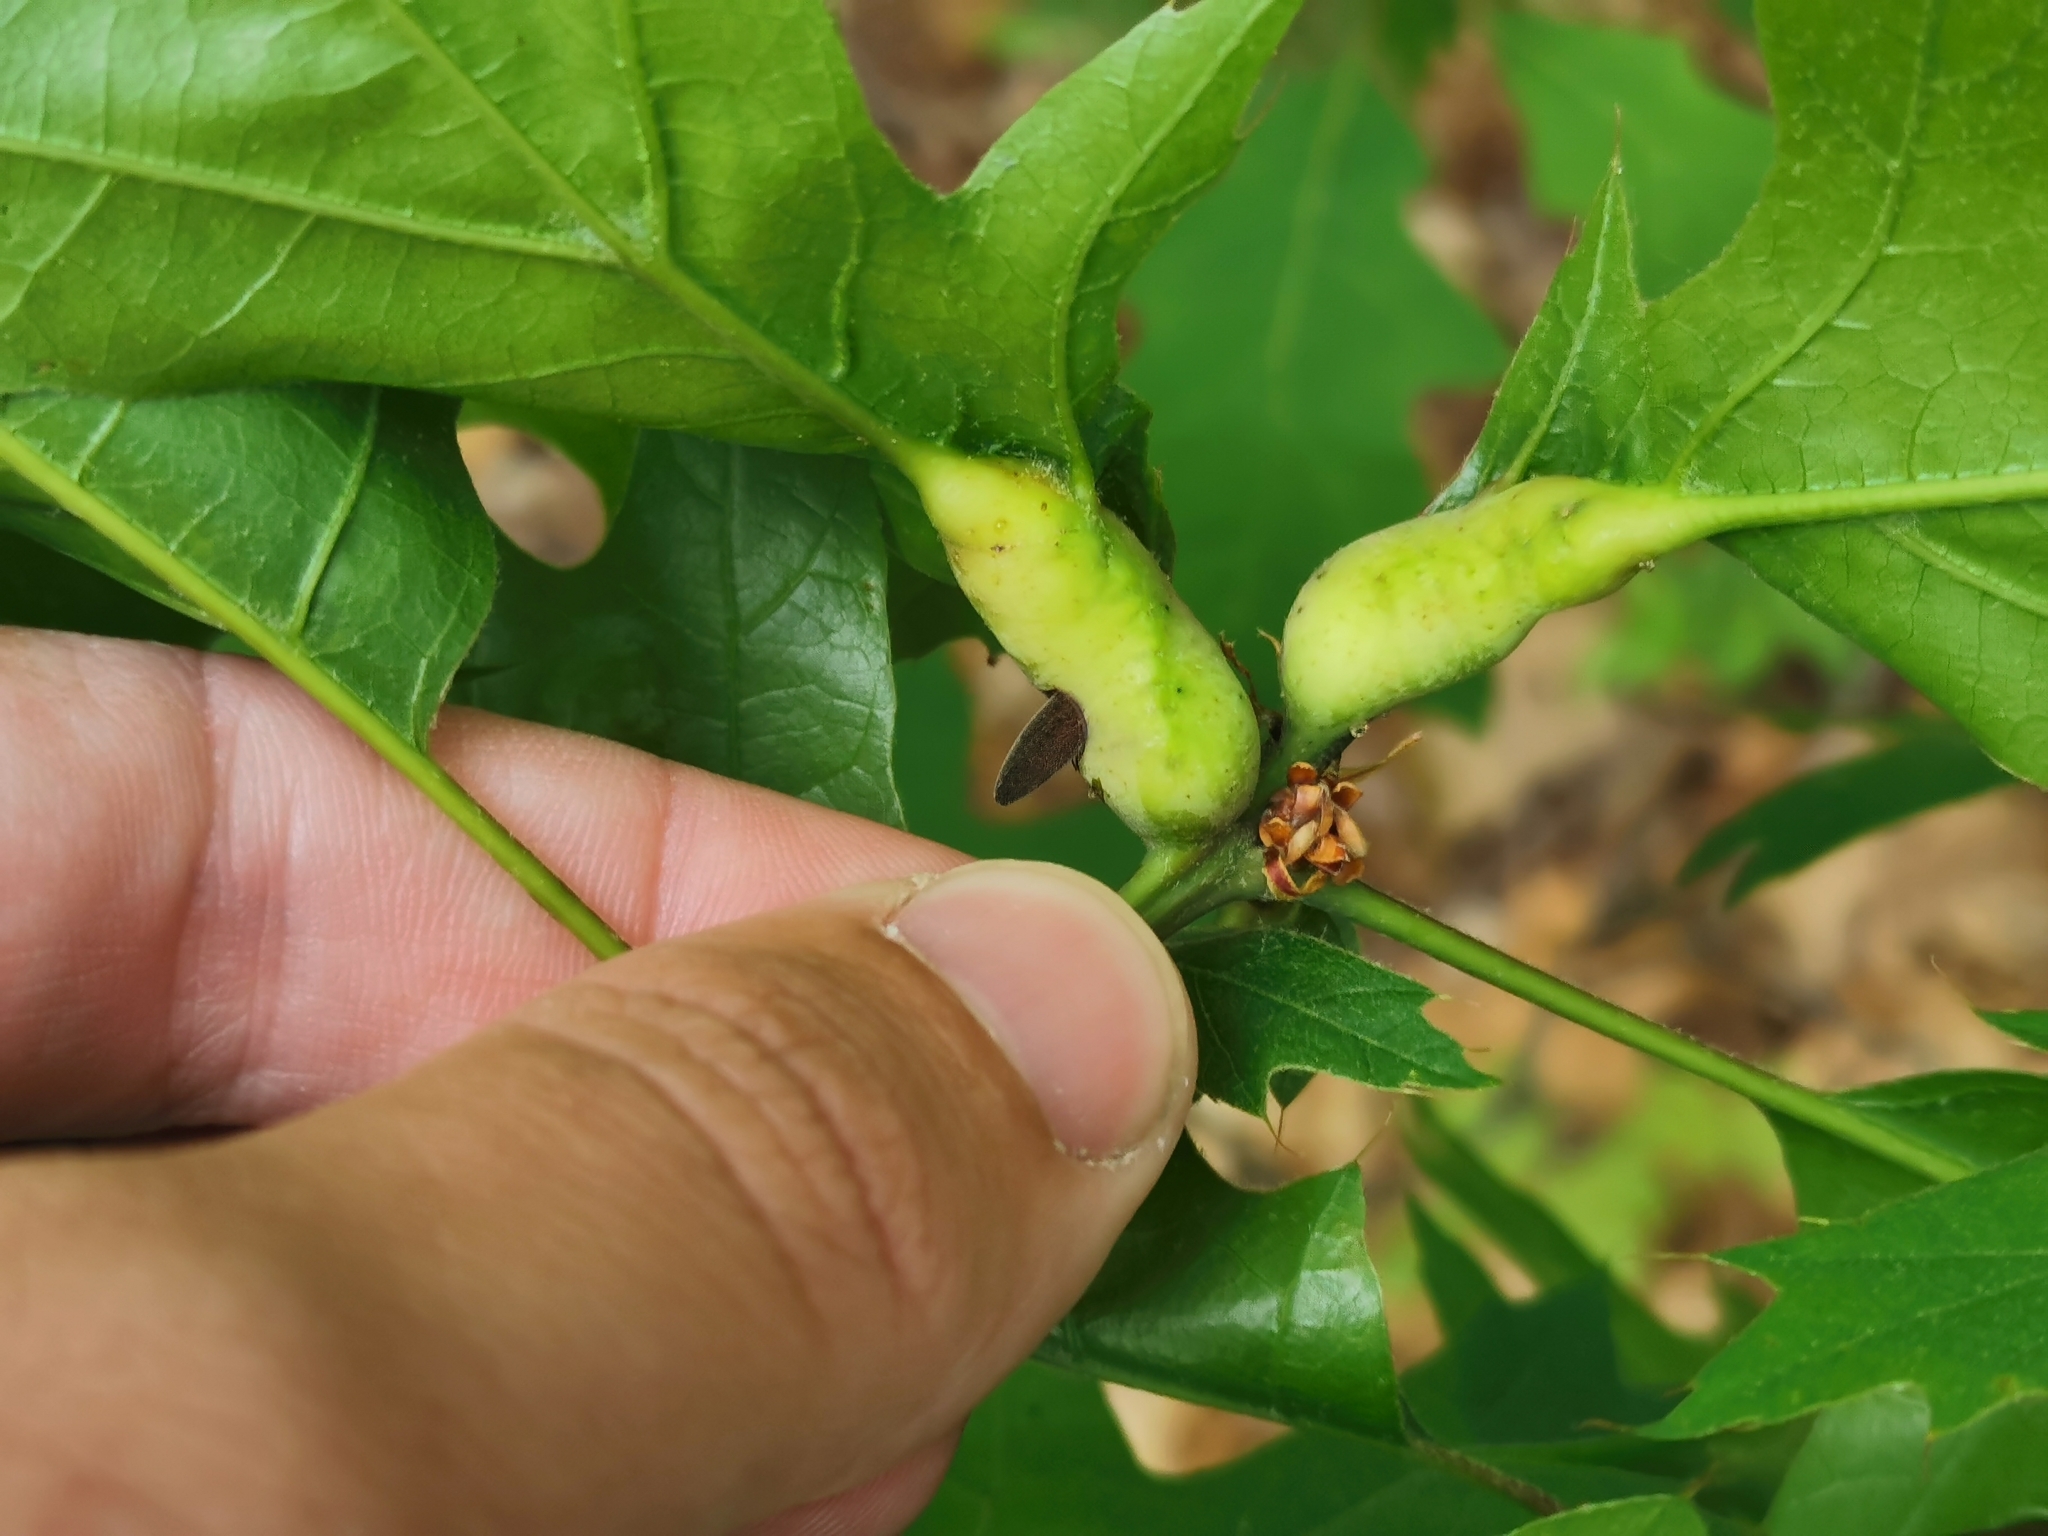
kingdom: Animalia
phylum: Arthropoda
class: Insecta
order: Hymenoptera
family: Cynipidae
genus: Melikaiella
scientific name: Melikaiella tumifica
